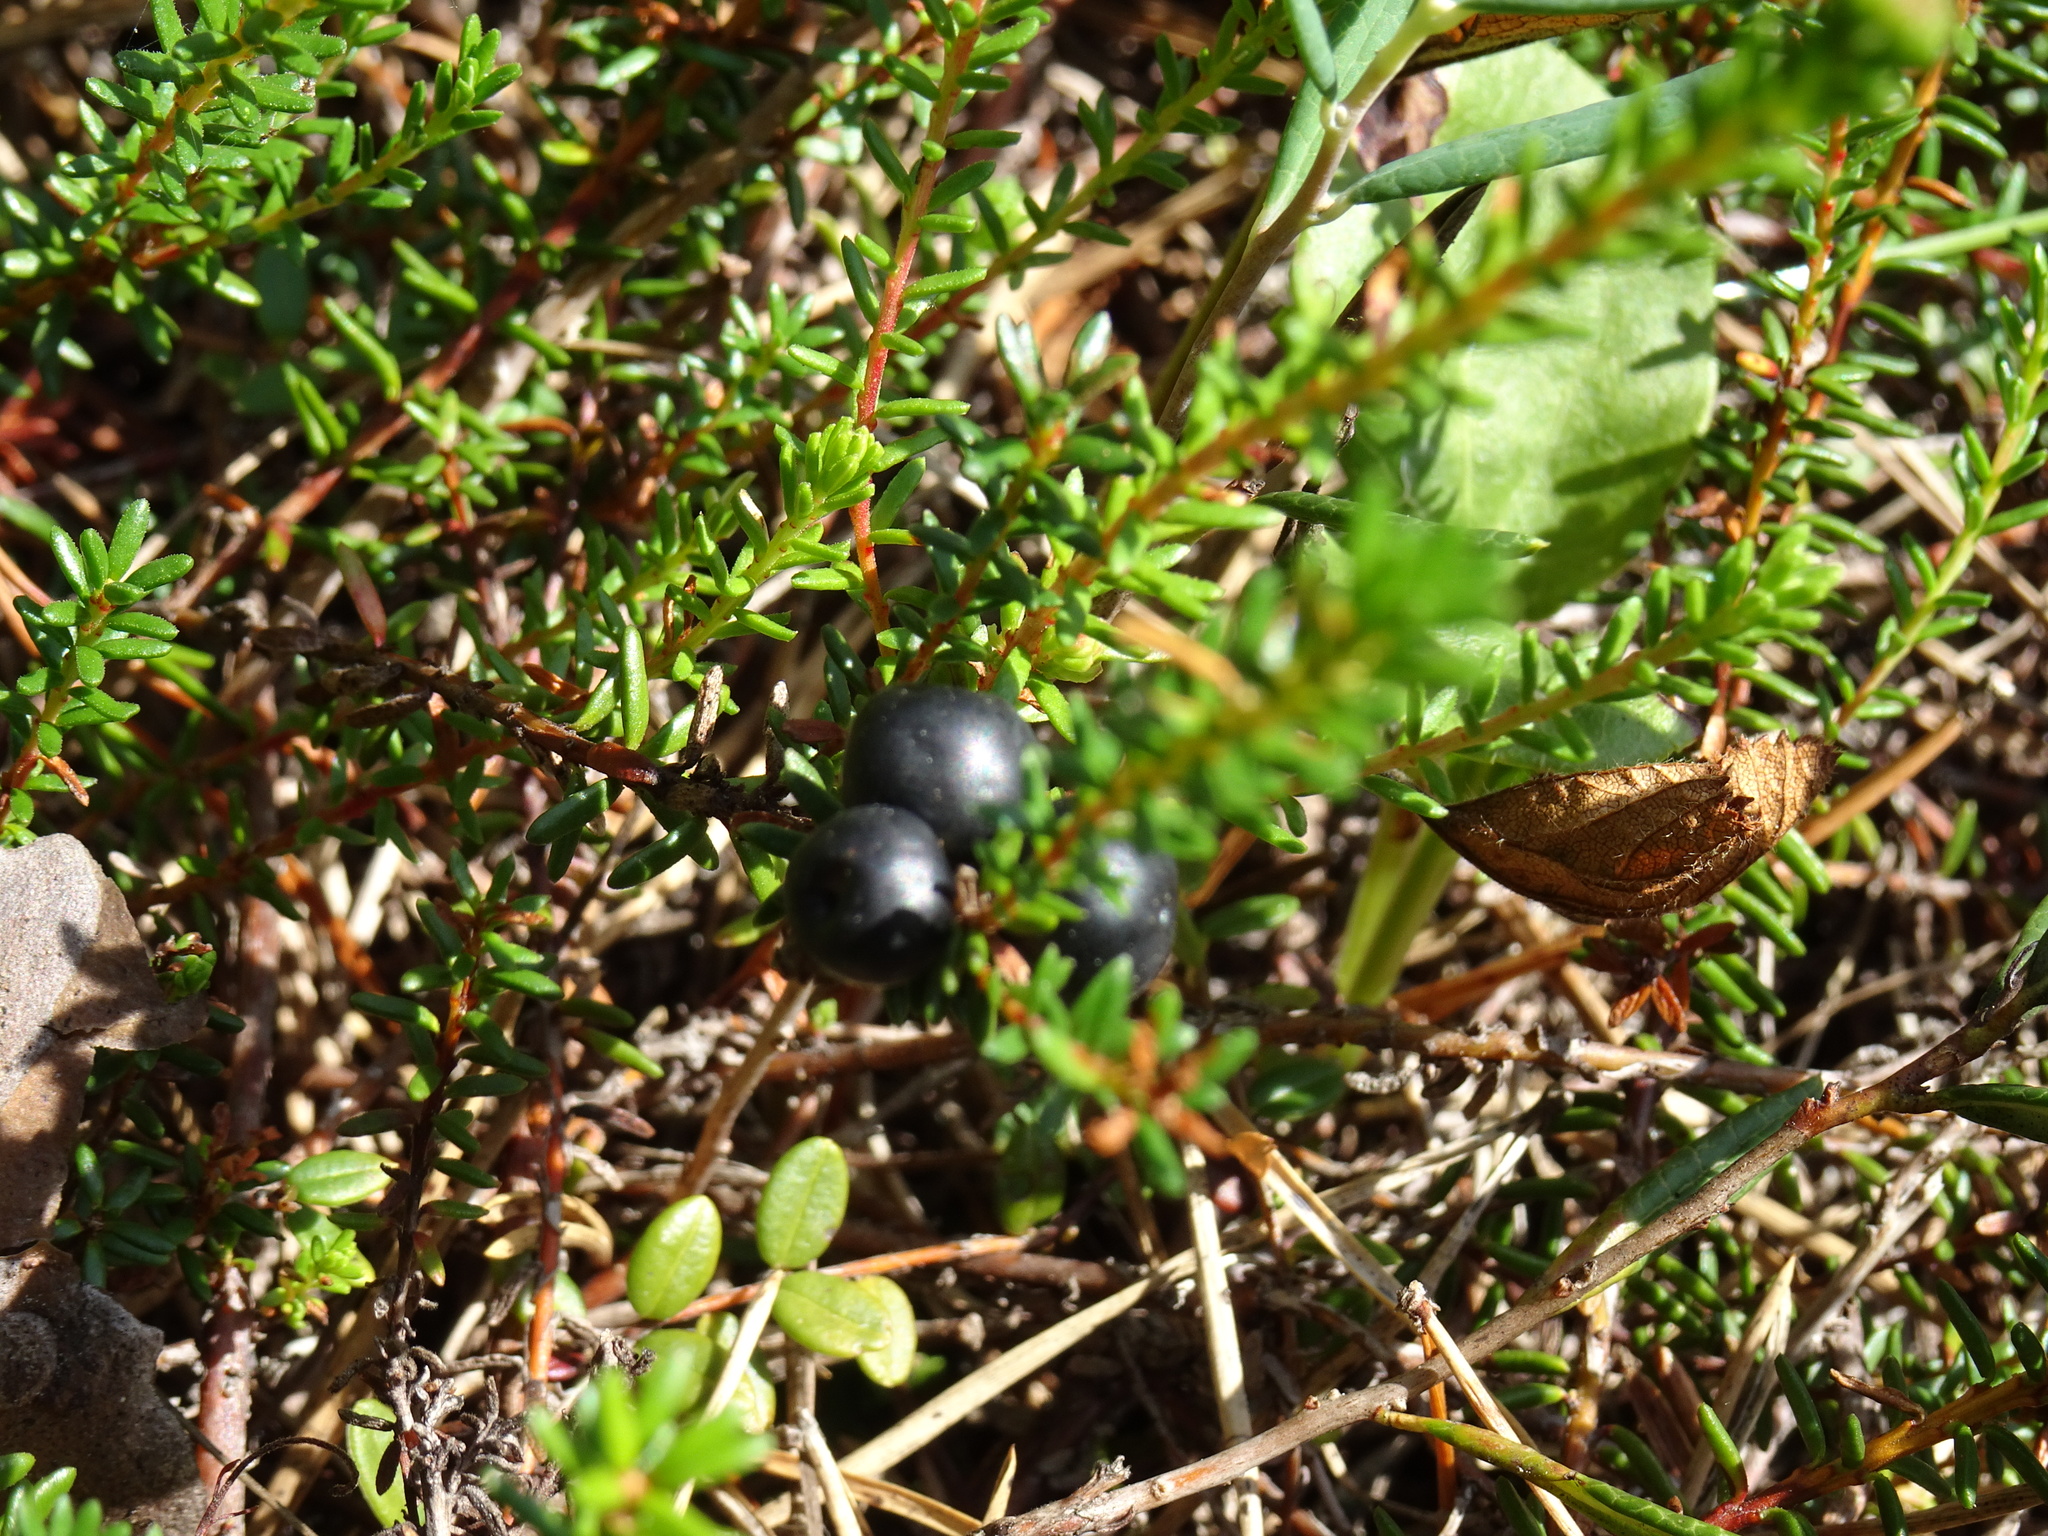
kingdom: Plantae
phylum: Tracheophyta
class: Magnoliopsida
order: Ericales
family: Ericaceae
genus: Empetrum
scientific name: Empetrum nigrum
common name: Black crowberry
